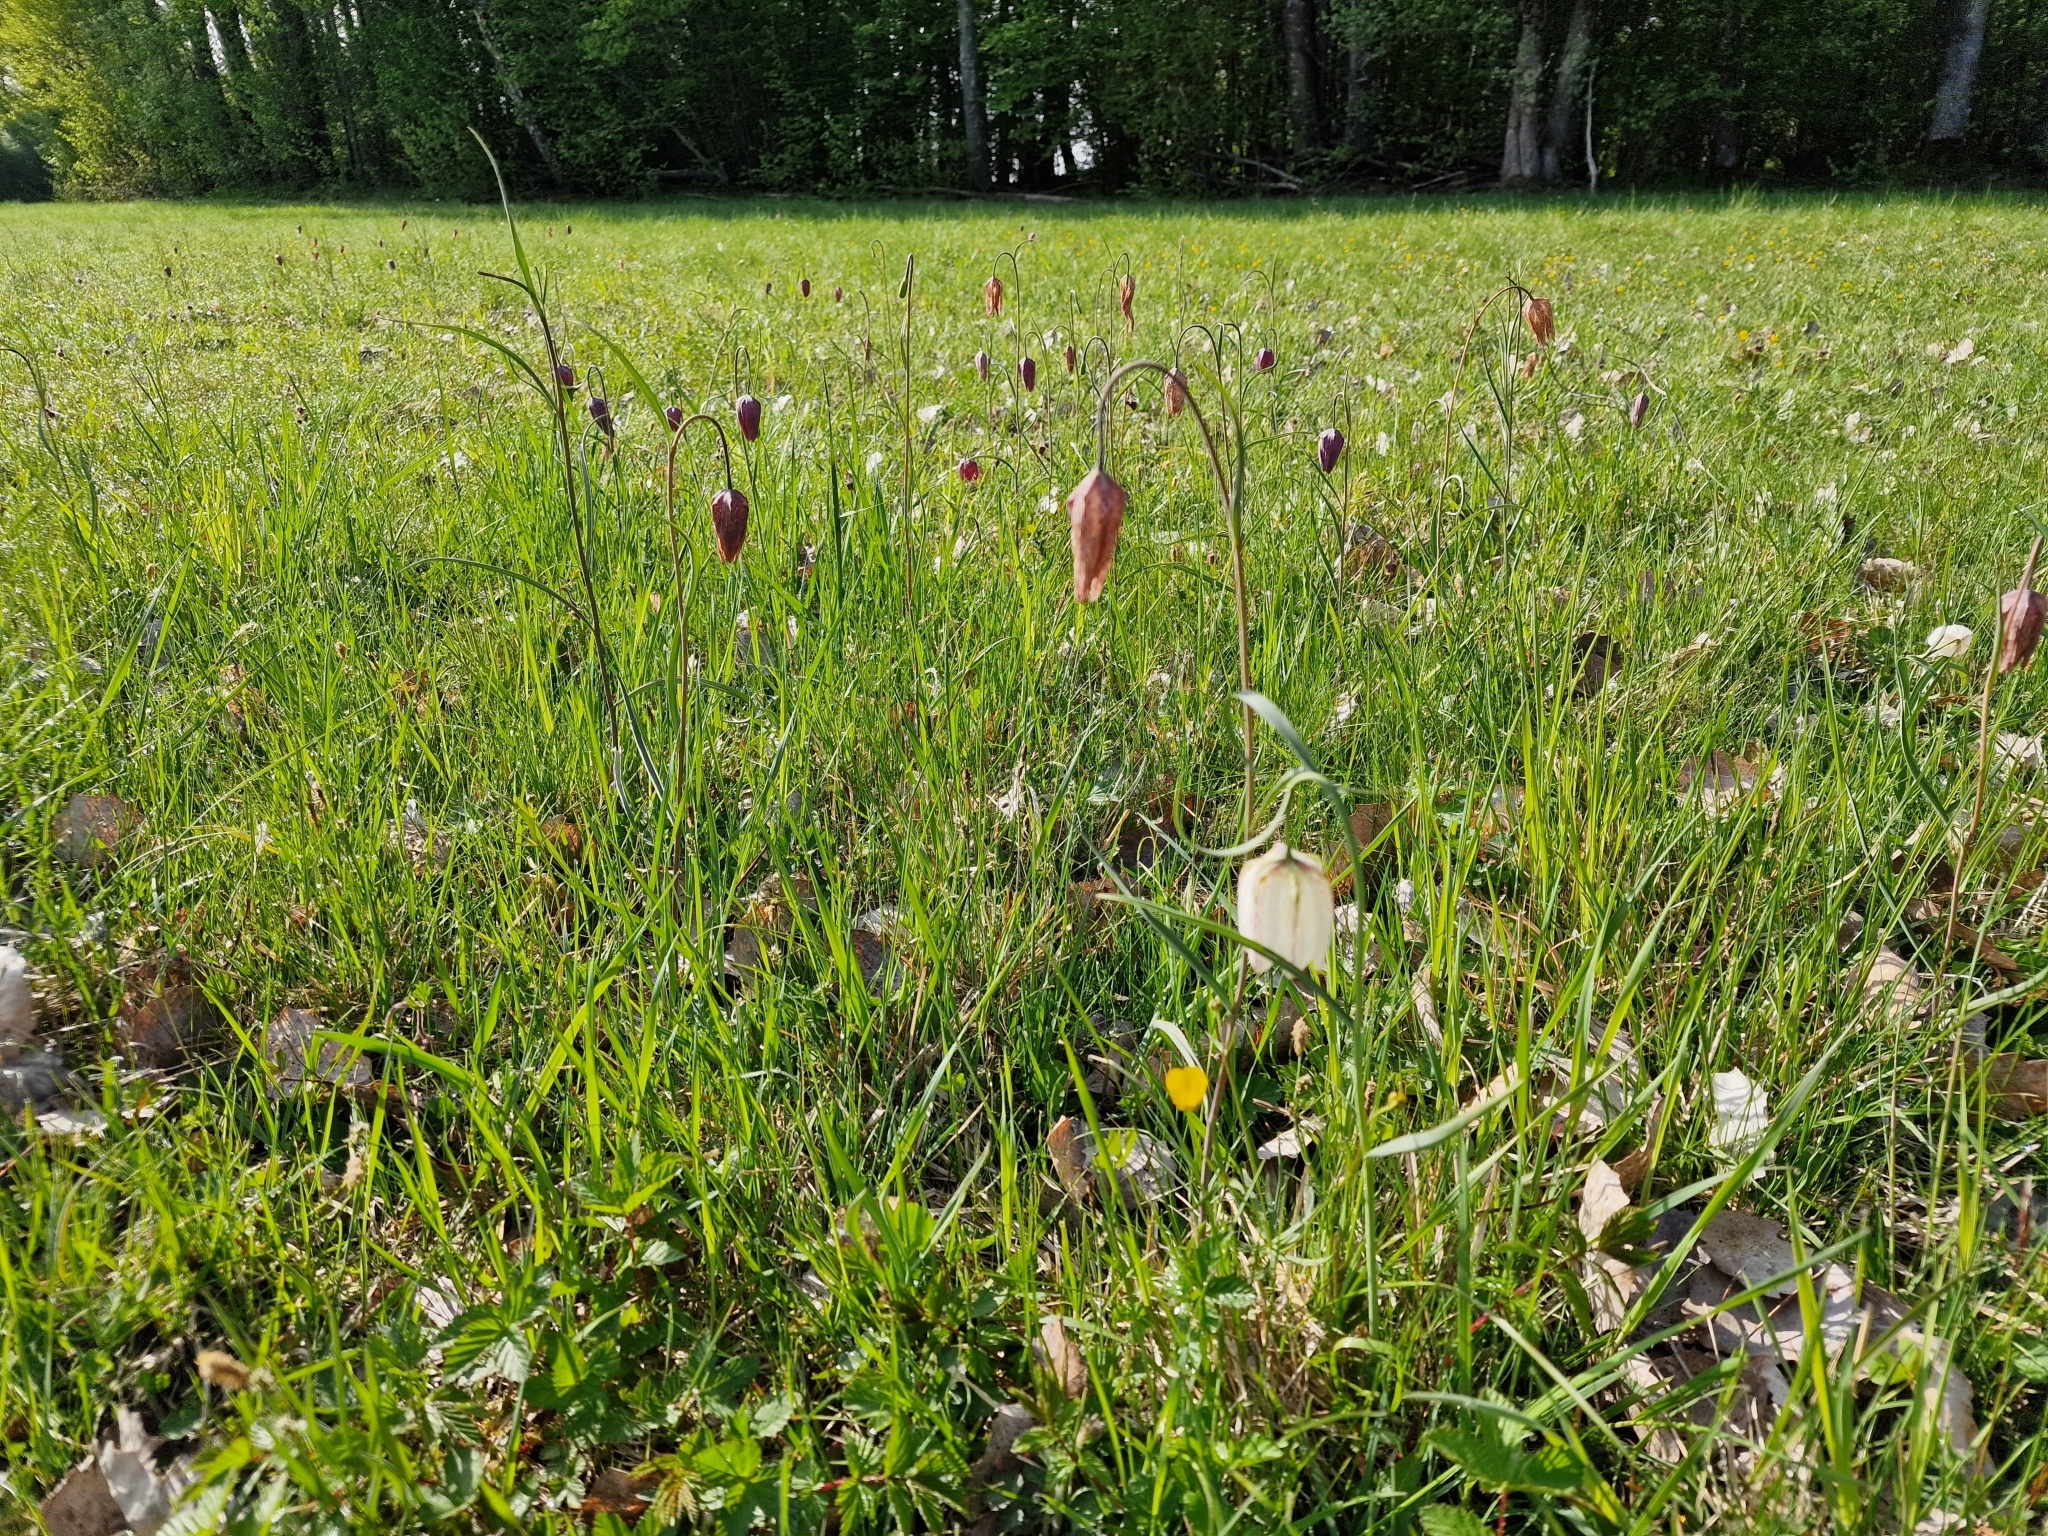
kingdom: Plantae
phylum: Tracheophyta
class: Liliopsida
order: Liliales
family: Liliaceae
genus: Fritillaria
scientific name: Fritillaria meleagris
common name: Fritillary
